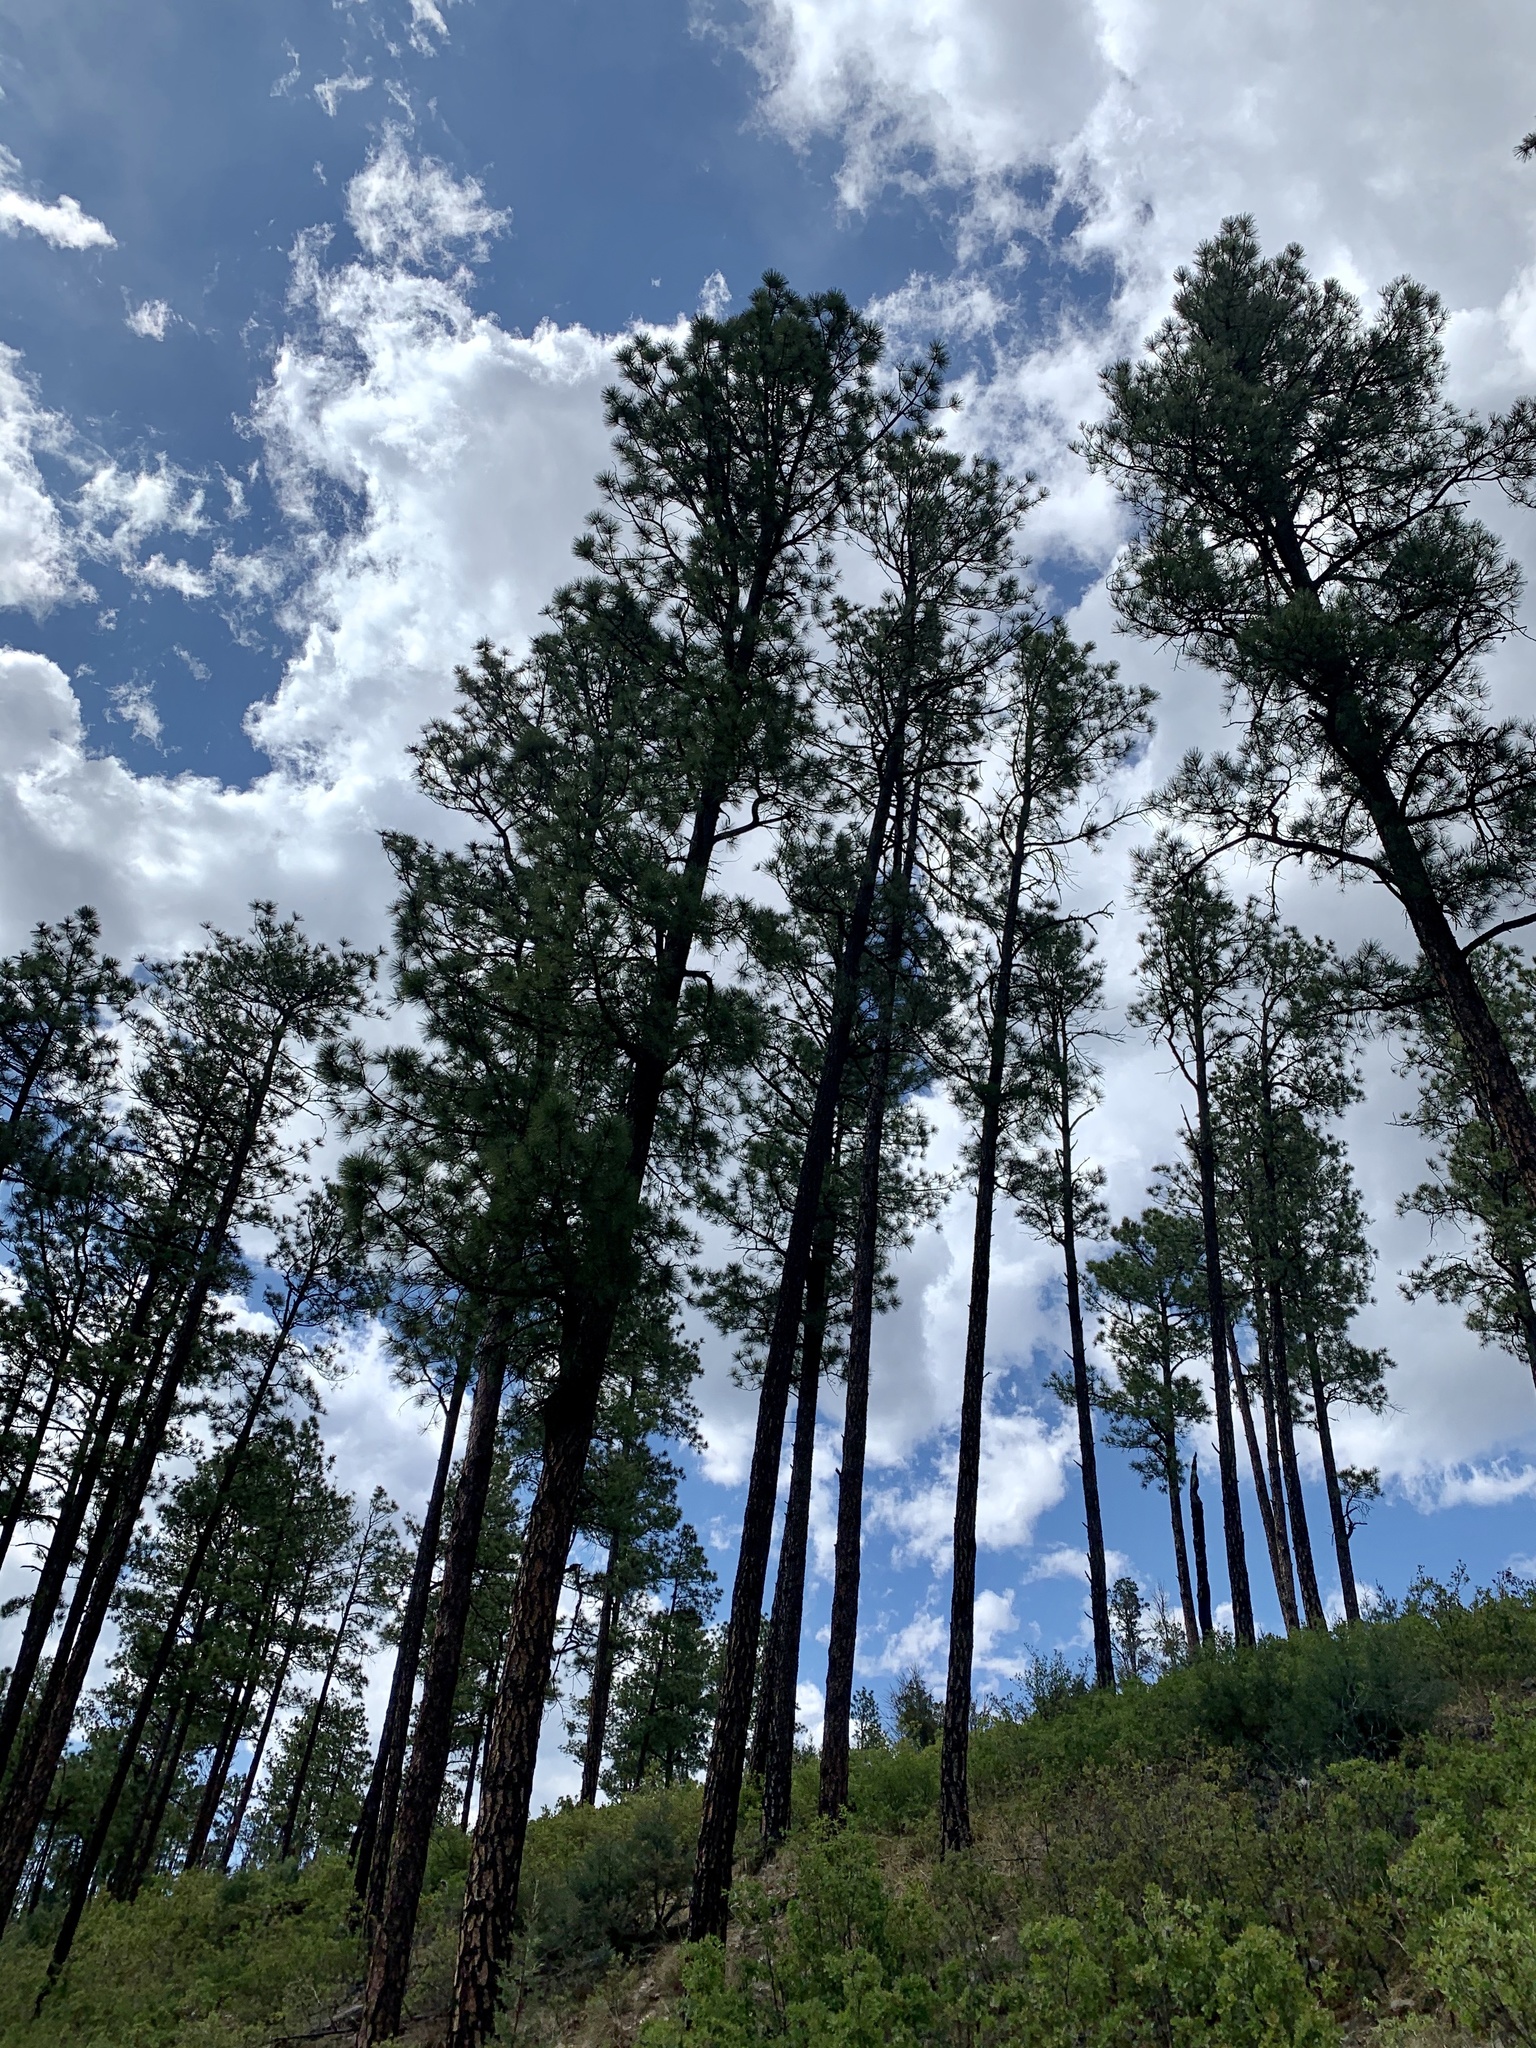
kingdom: Plantae
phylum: Tracheophyta
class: Pinopsida
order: Pinales
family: Pinaceae
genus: Pinus
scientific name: Pinus ponderosa
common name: Western yellow-pine
